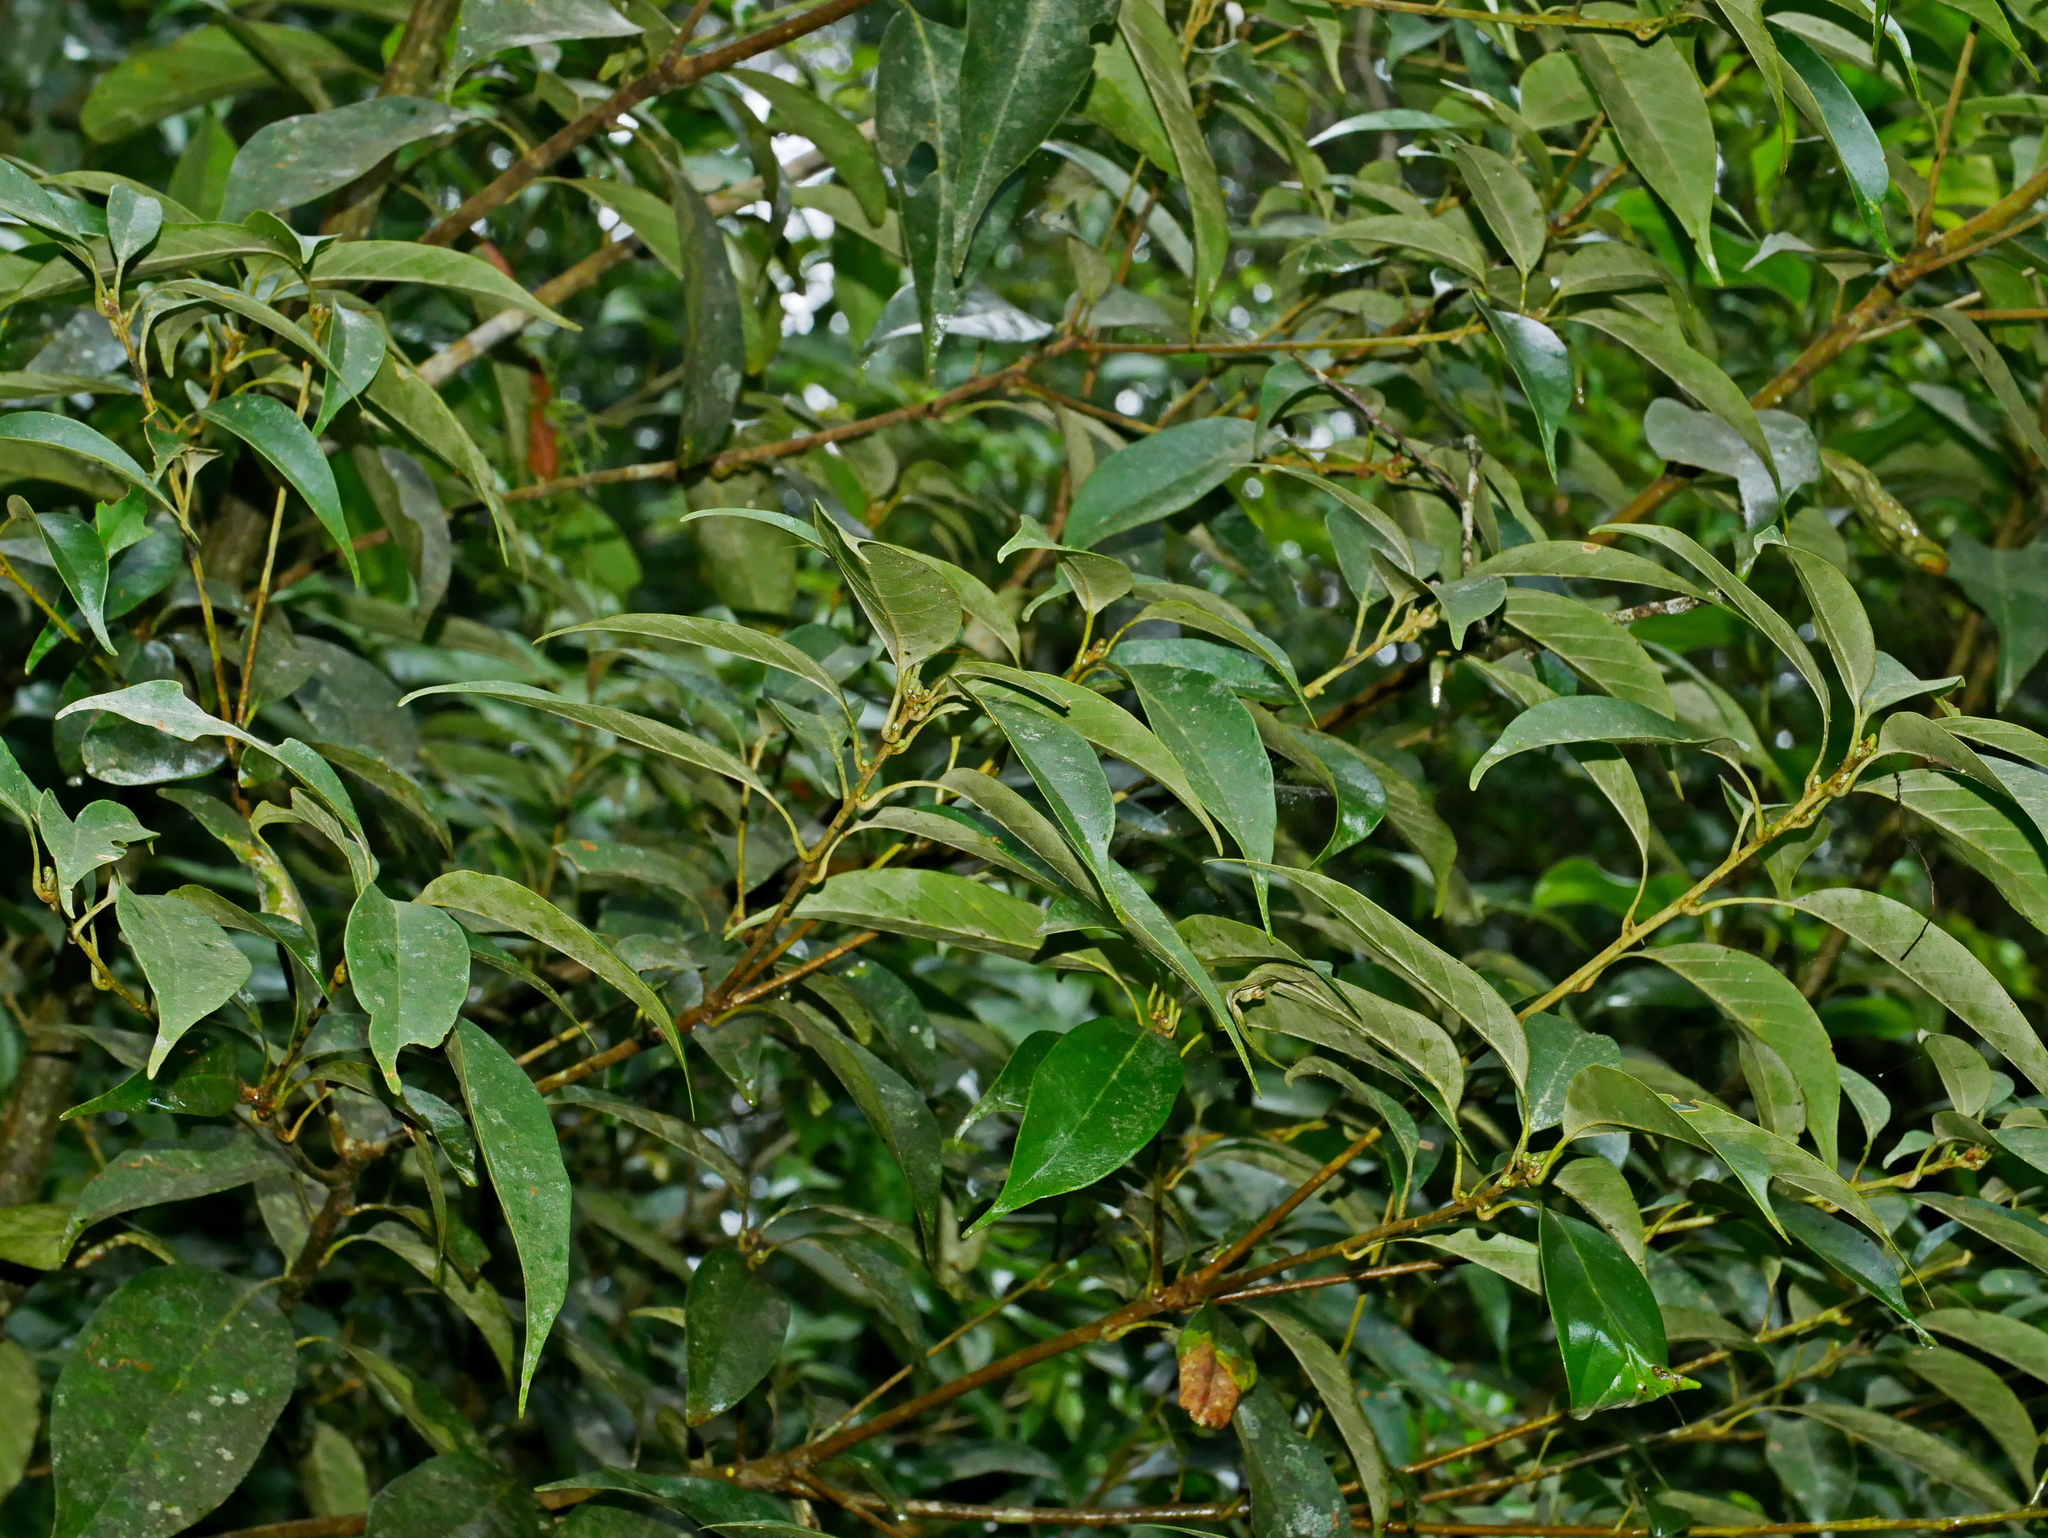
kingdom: Plantae
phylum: Tracheophyta
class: Magnoliopsida
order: Fagales
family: Fagaceae
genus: Lithocarpus
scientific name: Lithocarpus taitoensis
